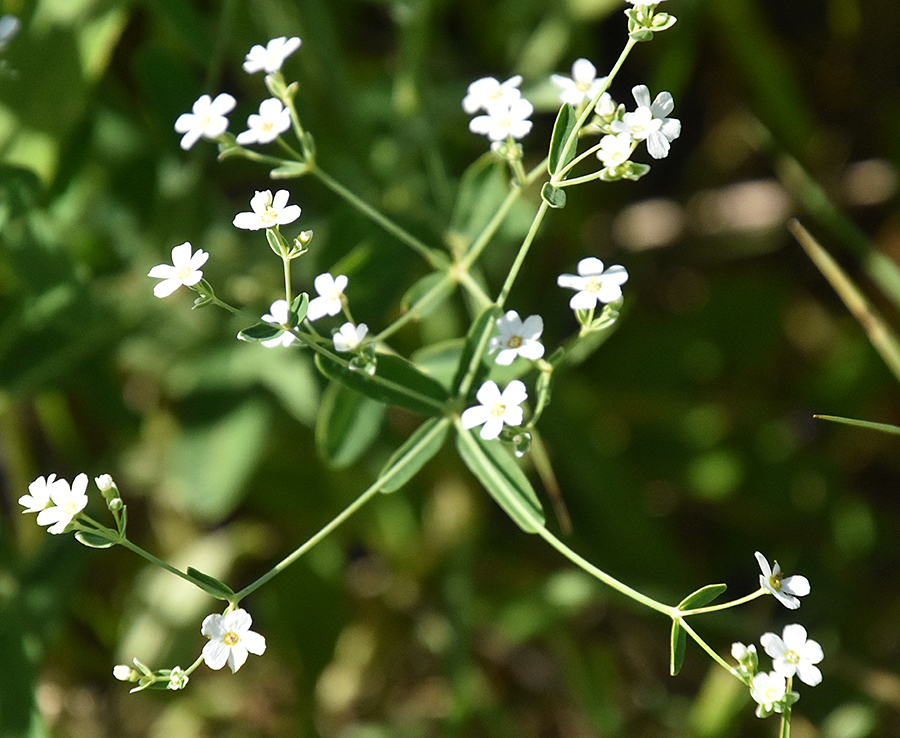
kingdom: Plantae
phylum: Tracheophyta
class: Magnoliopsida
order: Malpighiales
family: Euphorbiaceae
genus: Euphorbia
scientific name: Euphorbia corollata
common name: Flowering spurge
